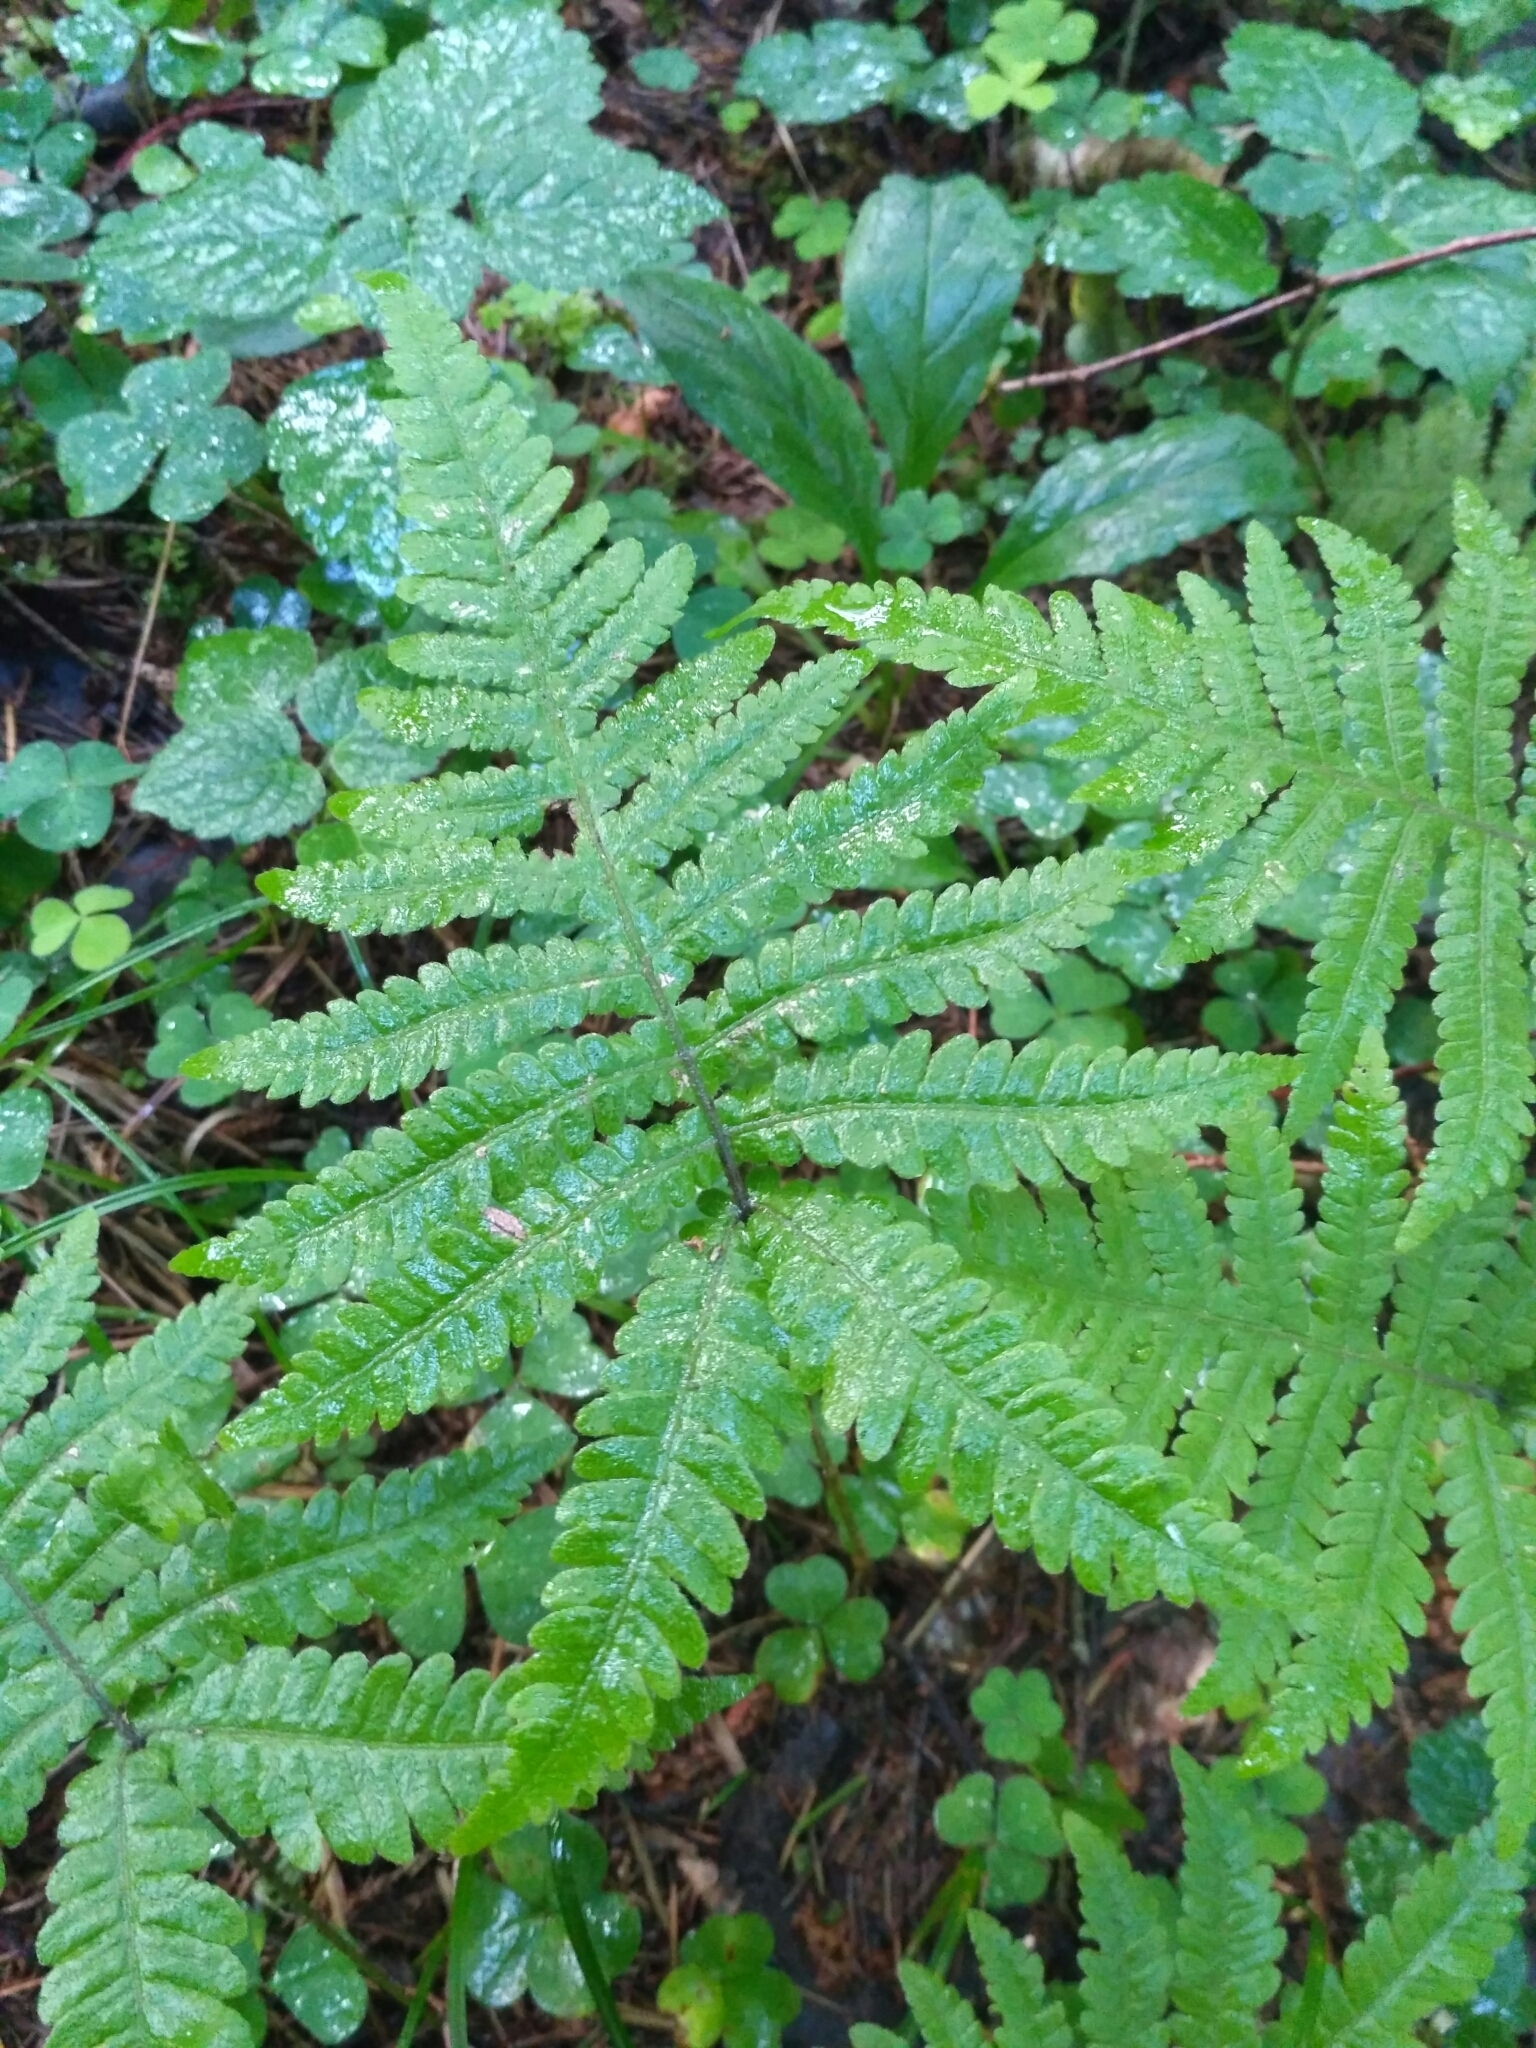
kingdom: Plantae
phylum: Tracheophyta
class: Polypodiopsida
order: Polypodiales
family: Thelypteridaceae
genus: Phegopteris
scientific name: Phegopteris connectilis
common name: Beech fern
